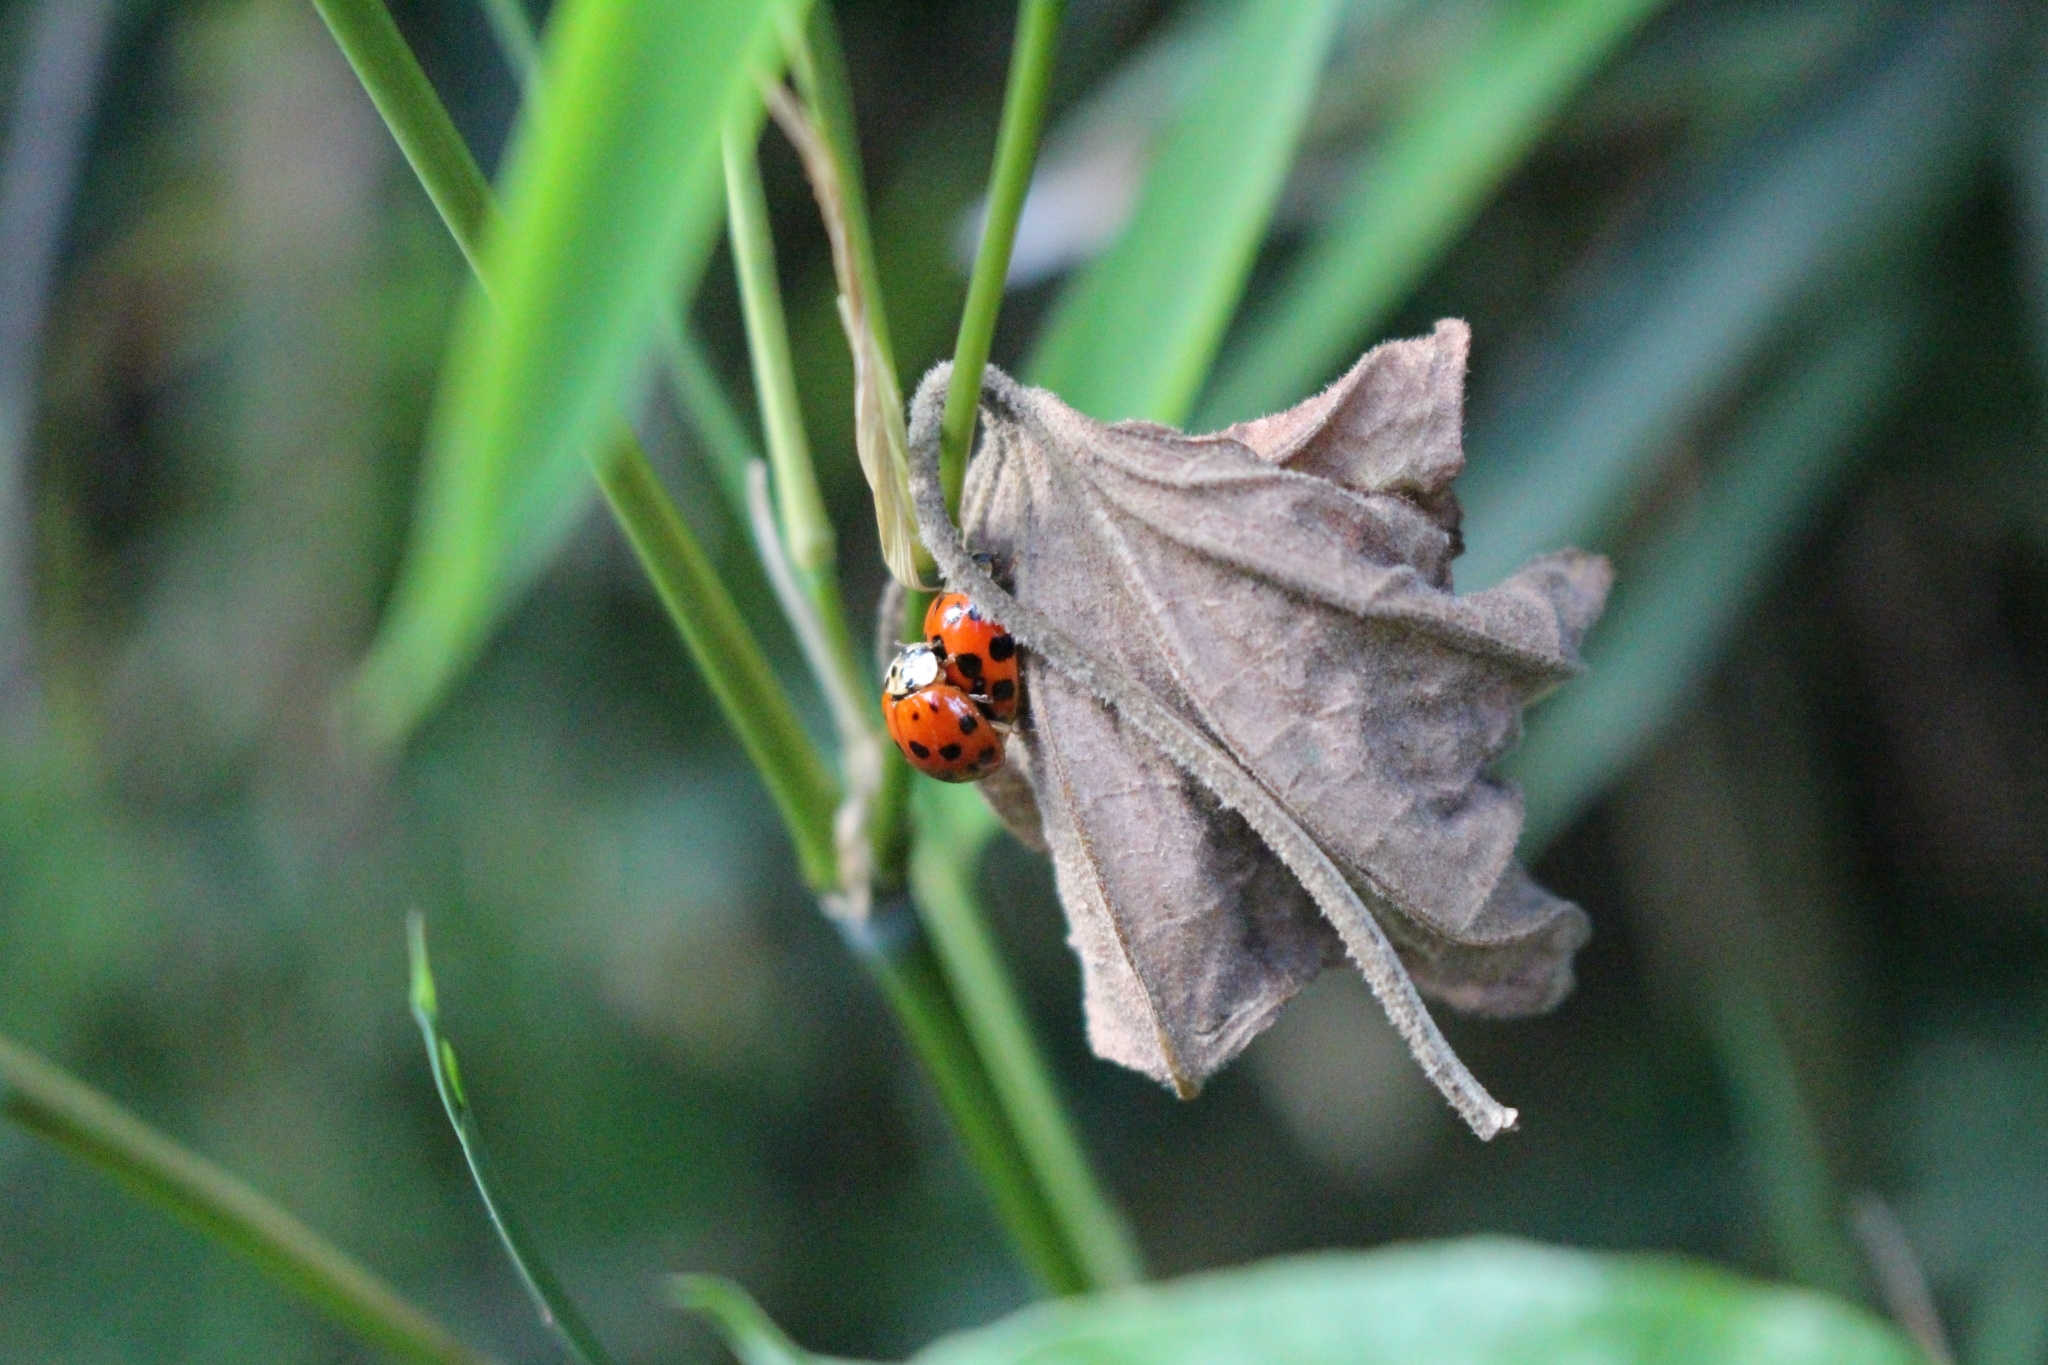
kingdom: Animalia
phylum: Arthropoda
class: Insecta
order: Coleoptera
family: Coccinellidae
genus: Harmonia
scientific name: Harmonia axyridis
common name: Harlequin ladybird
